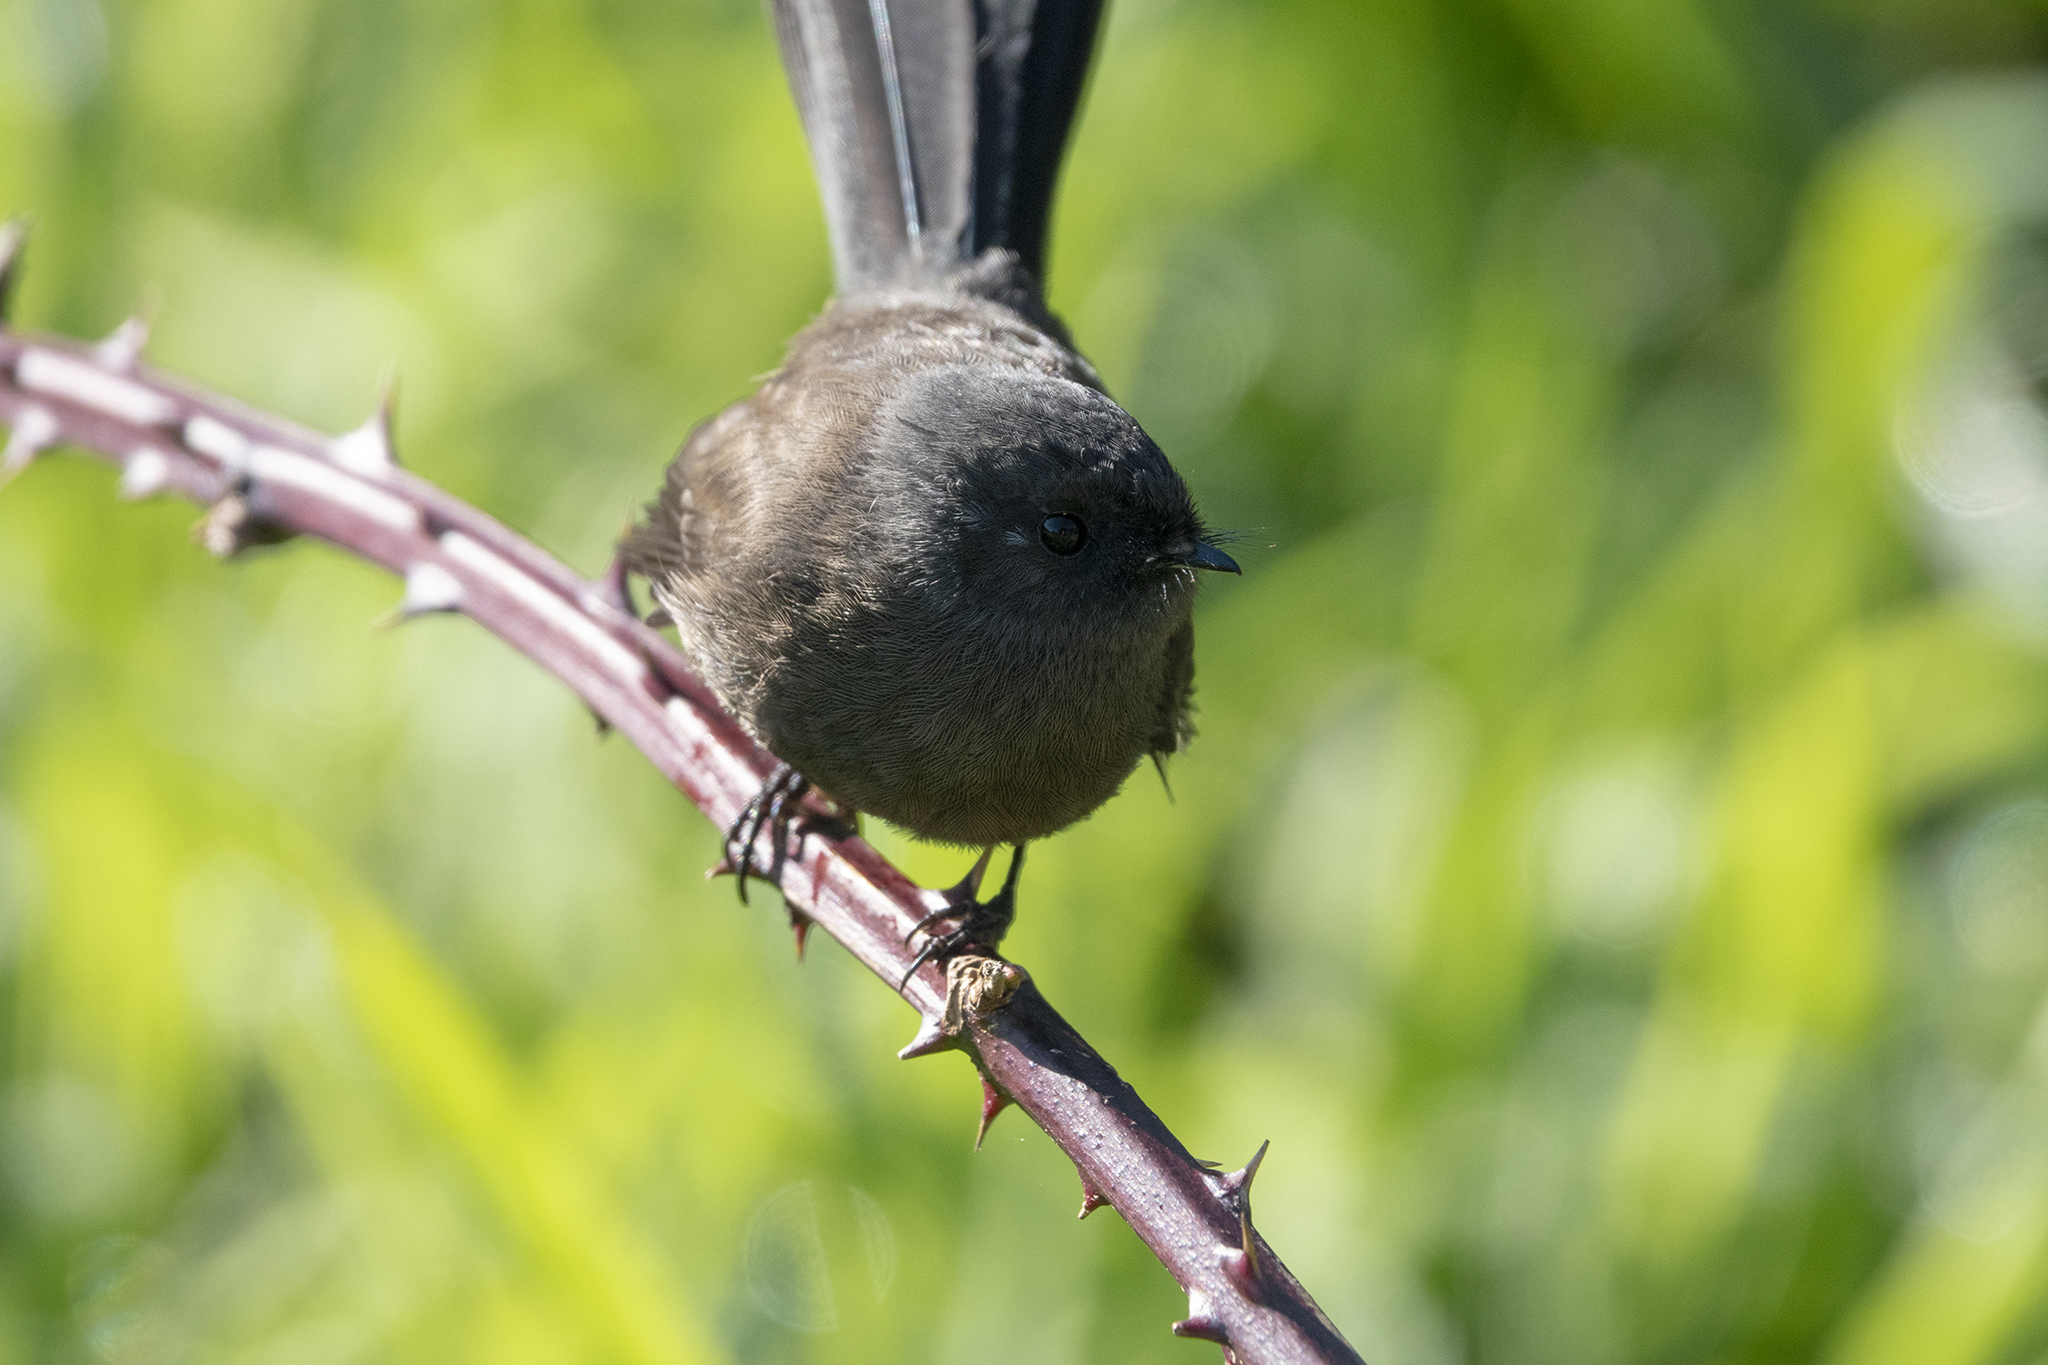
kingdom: Animalia
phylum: Chordata
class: Aves
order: Passeriformes
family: Rhipiduridae
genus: Rhipidura
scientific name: Rhipidura fuliginosa
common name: New zealand fantail
